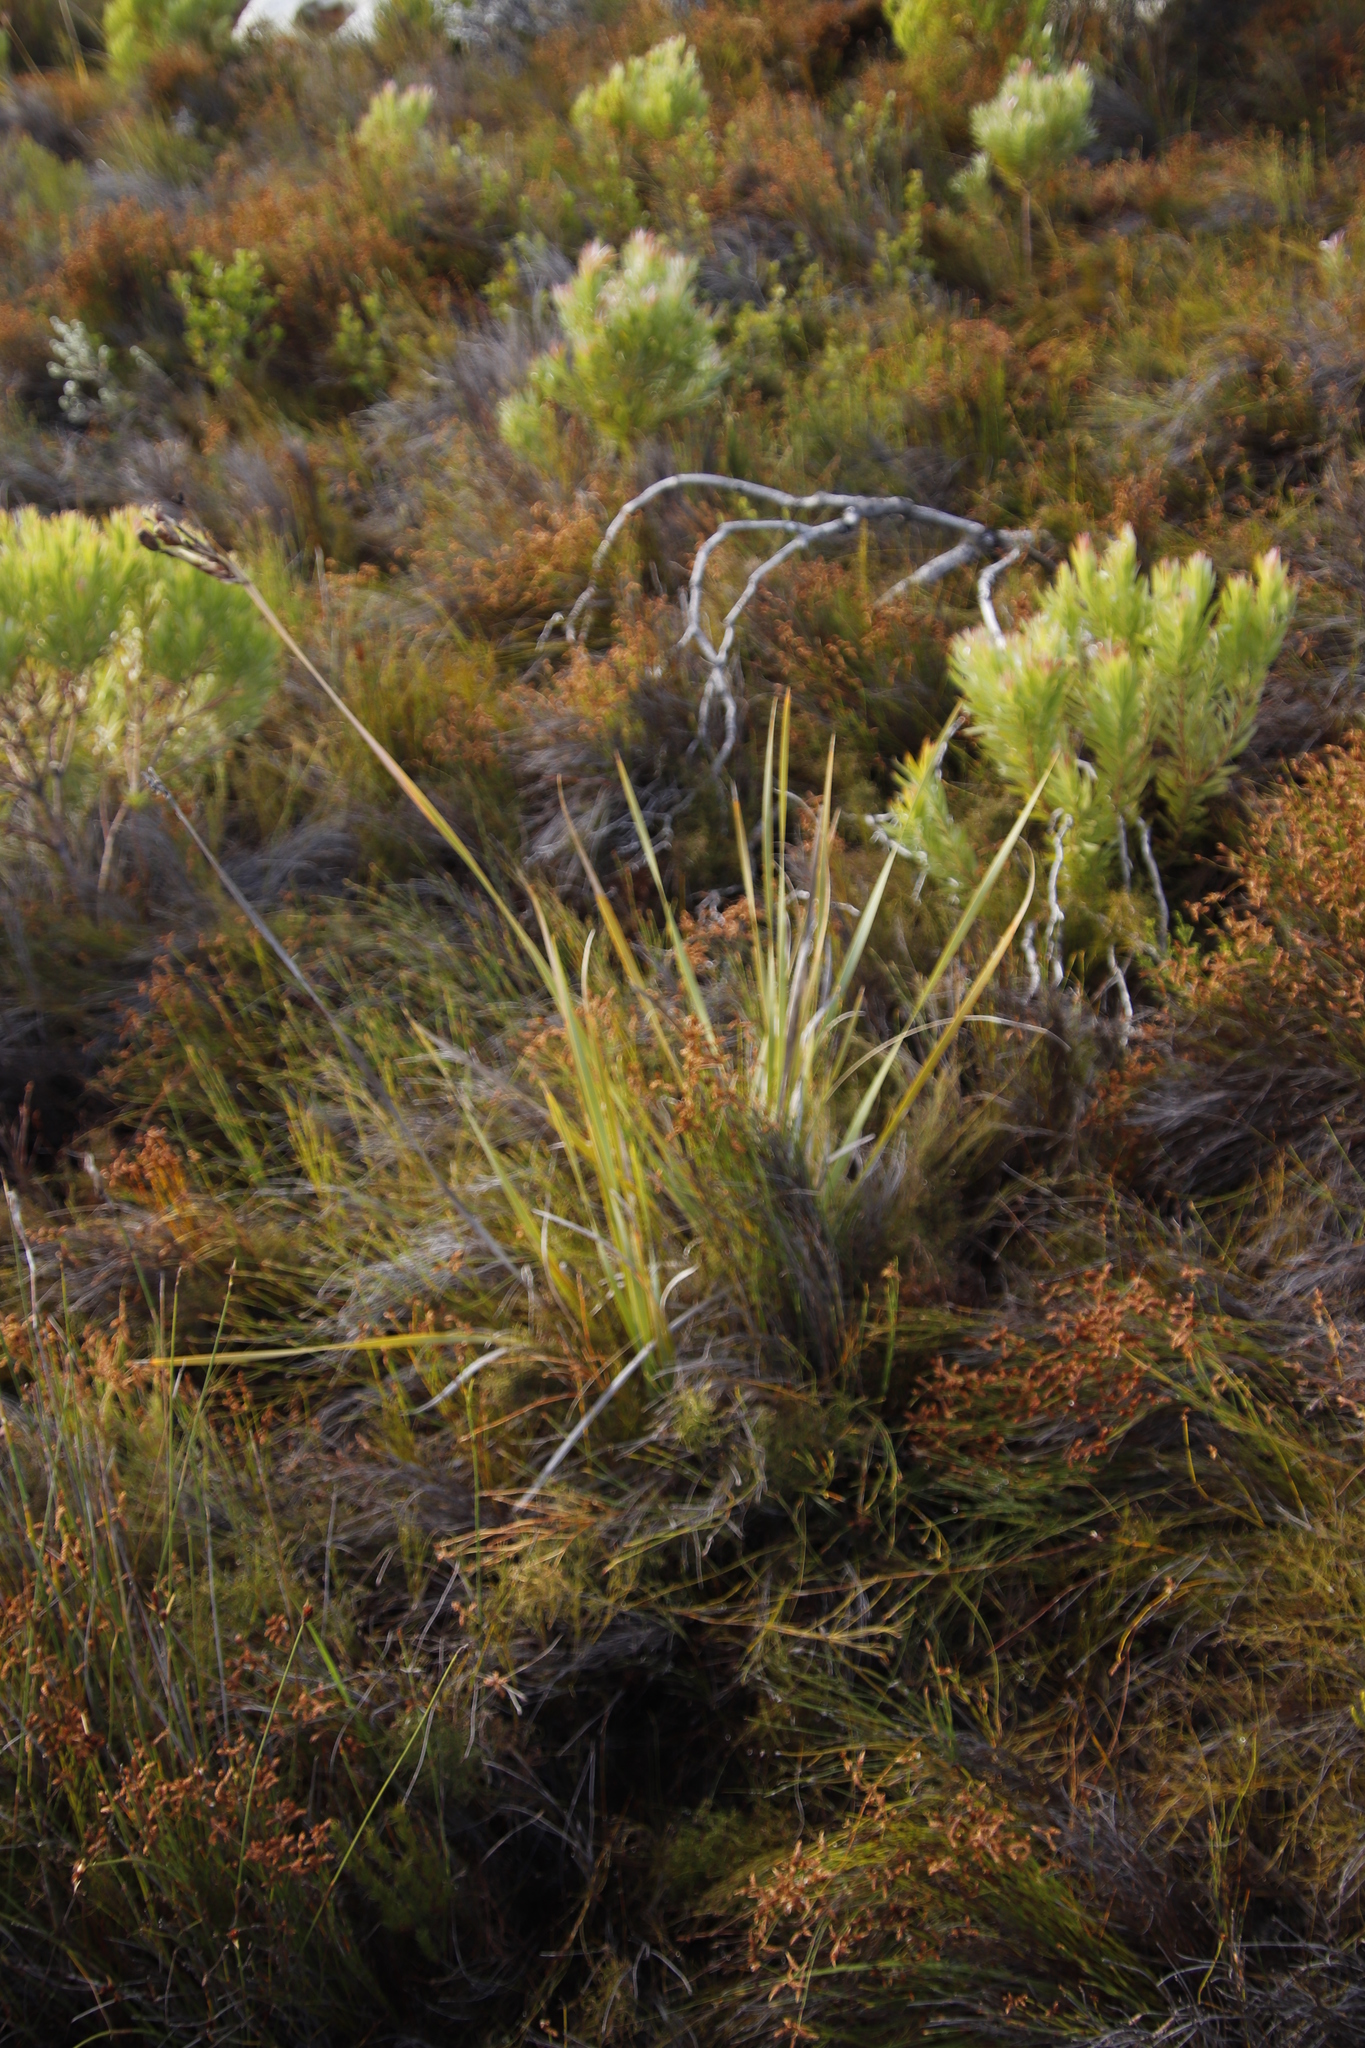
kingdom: Plantae
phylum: Tracheophyta
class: Liliopsida
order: Asparagales
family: Iridaceae
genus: Bobartia
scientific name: Bobartia gladiata
